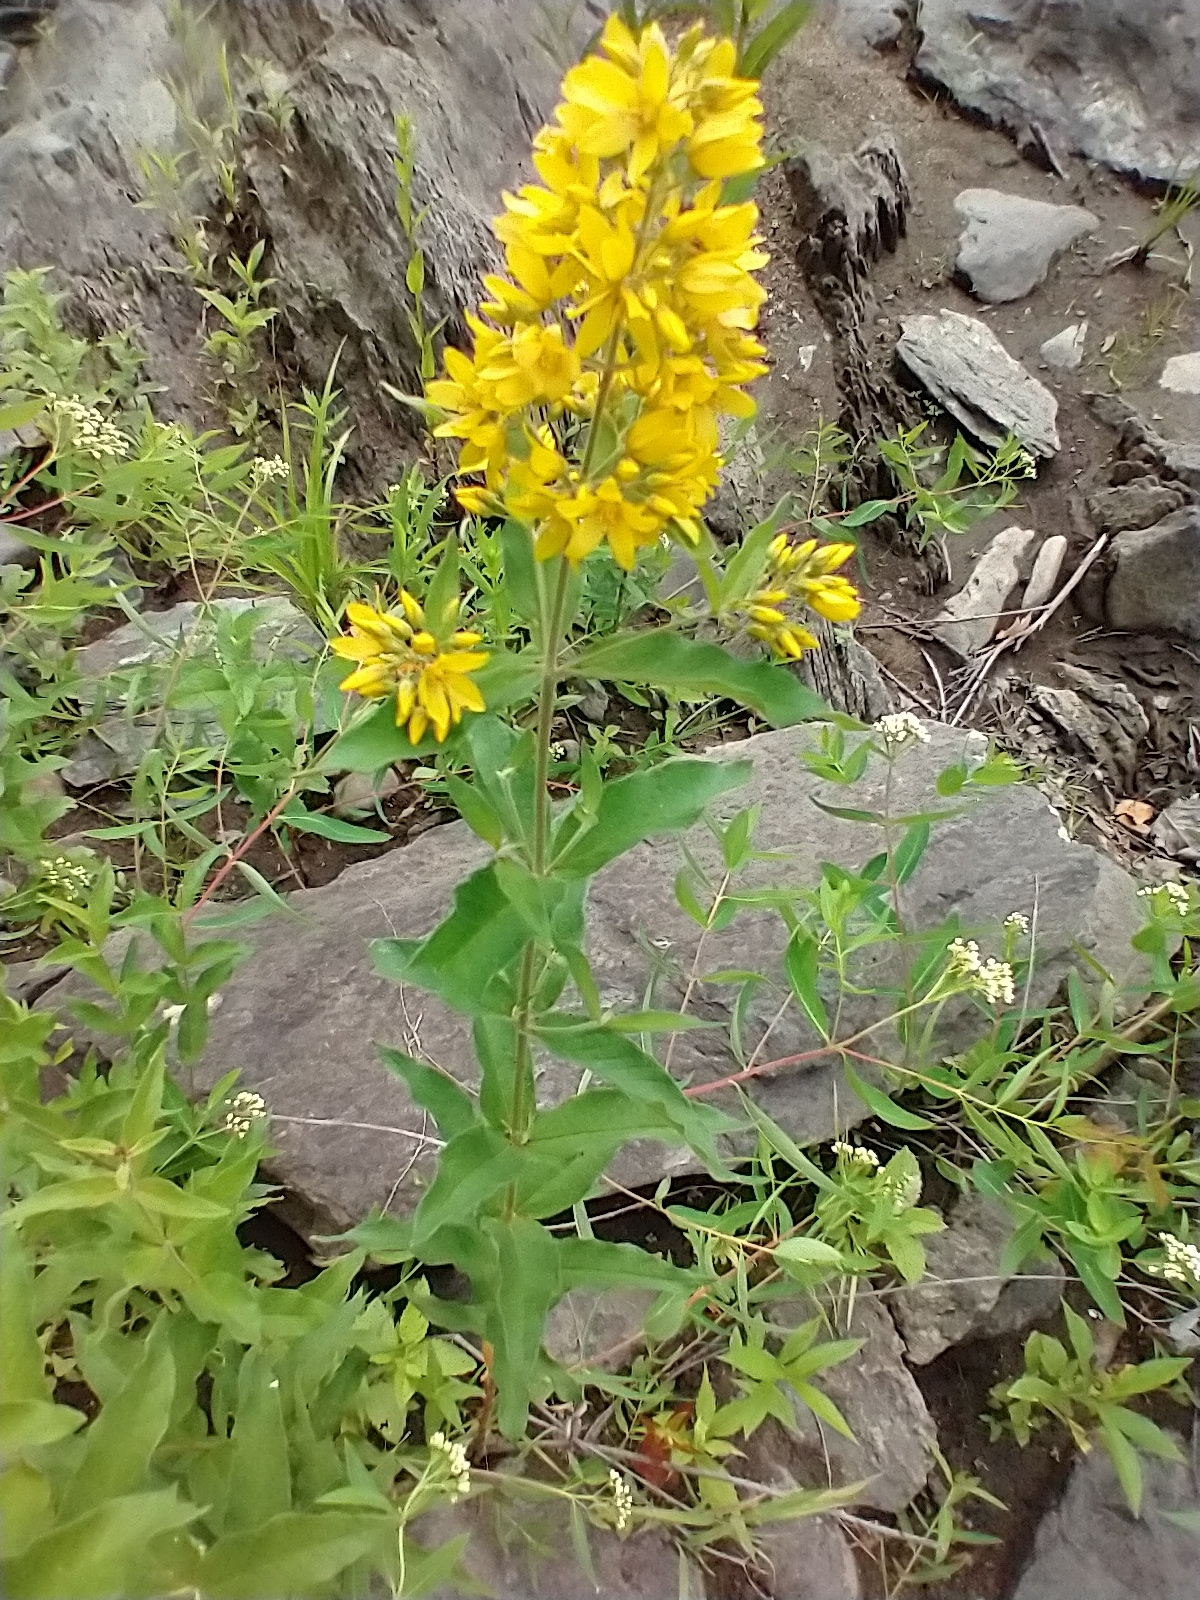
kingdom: Plantae
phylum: Tracheophyta
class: Magnoliopsida
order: Ericales
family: Primulaceae
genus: Lysimachia
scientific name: Lysimachia vulgaris
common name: Yellow loosestrife
